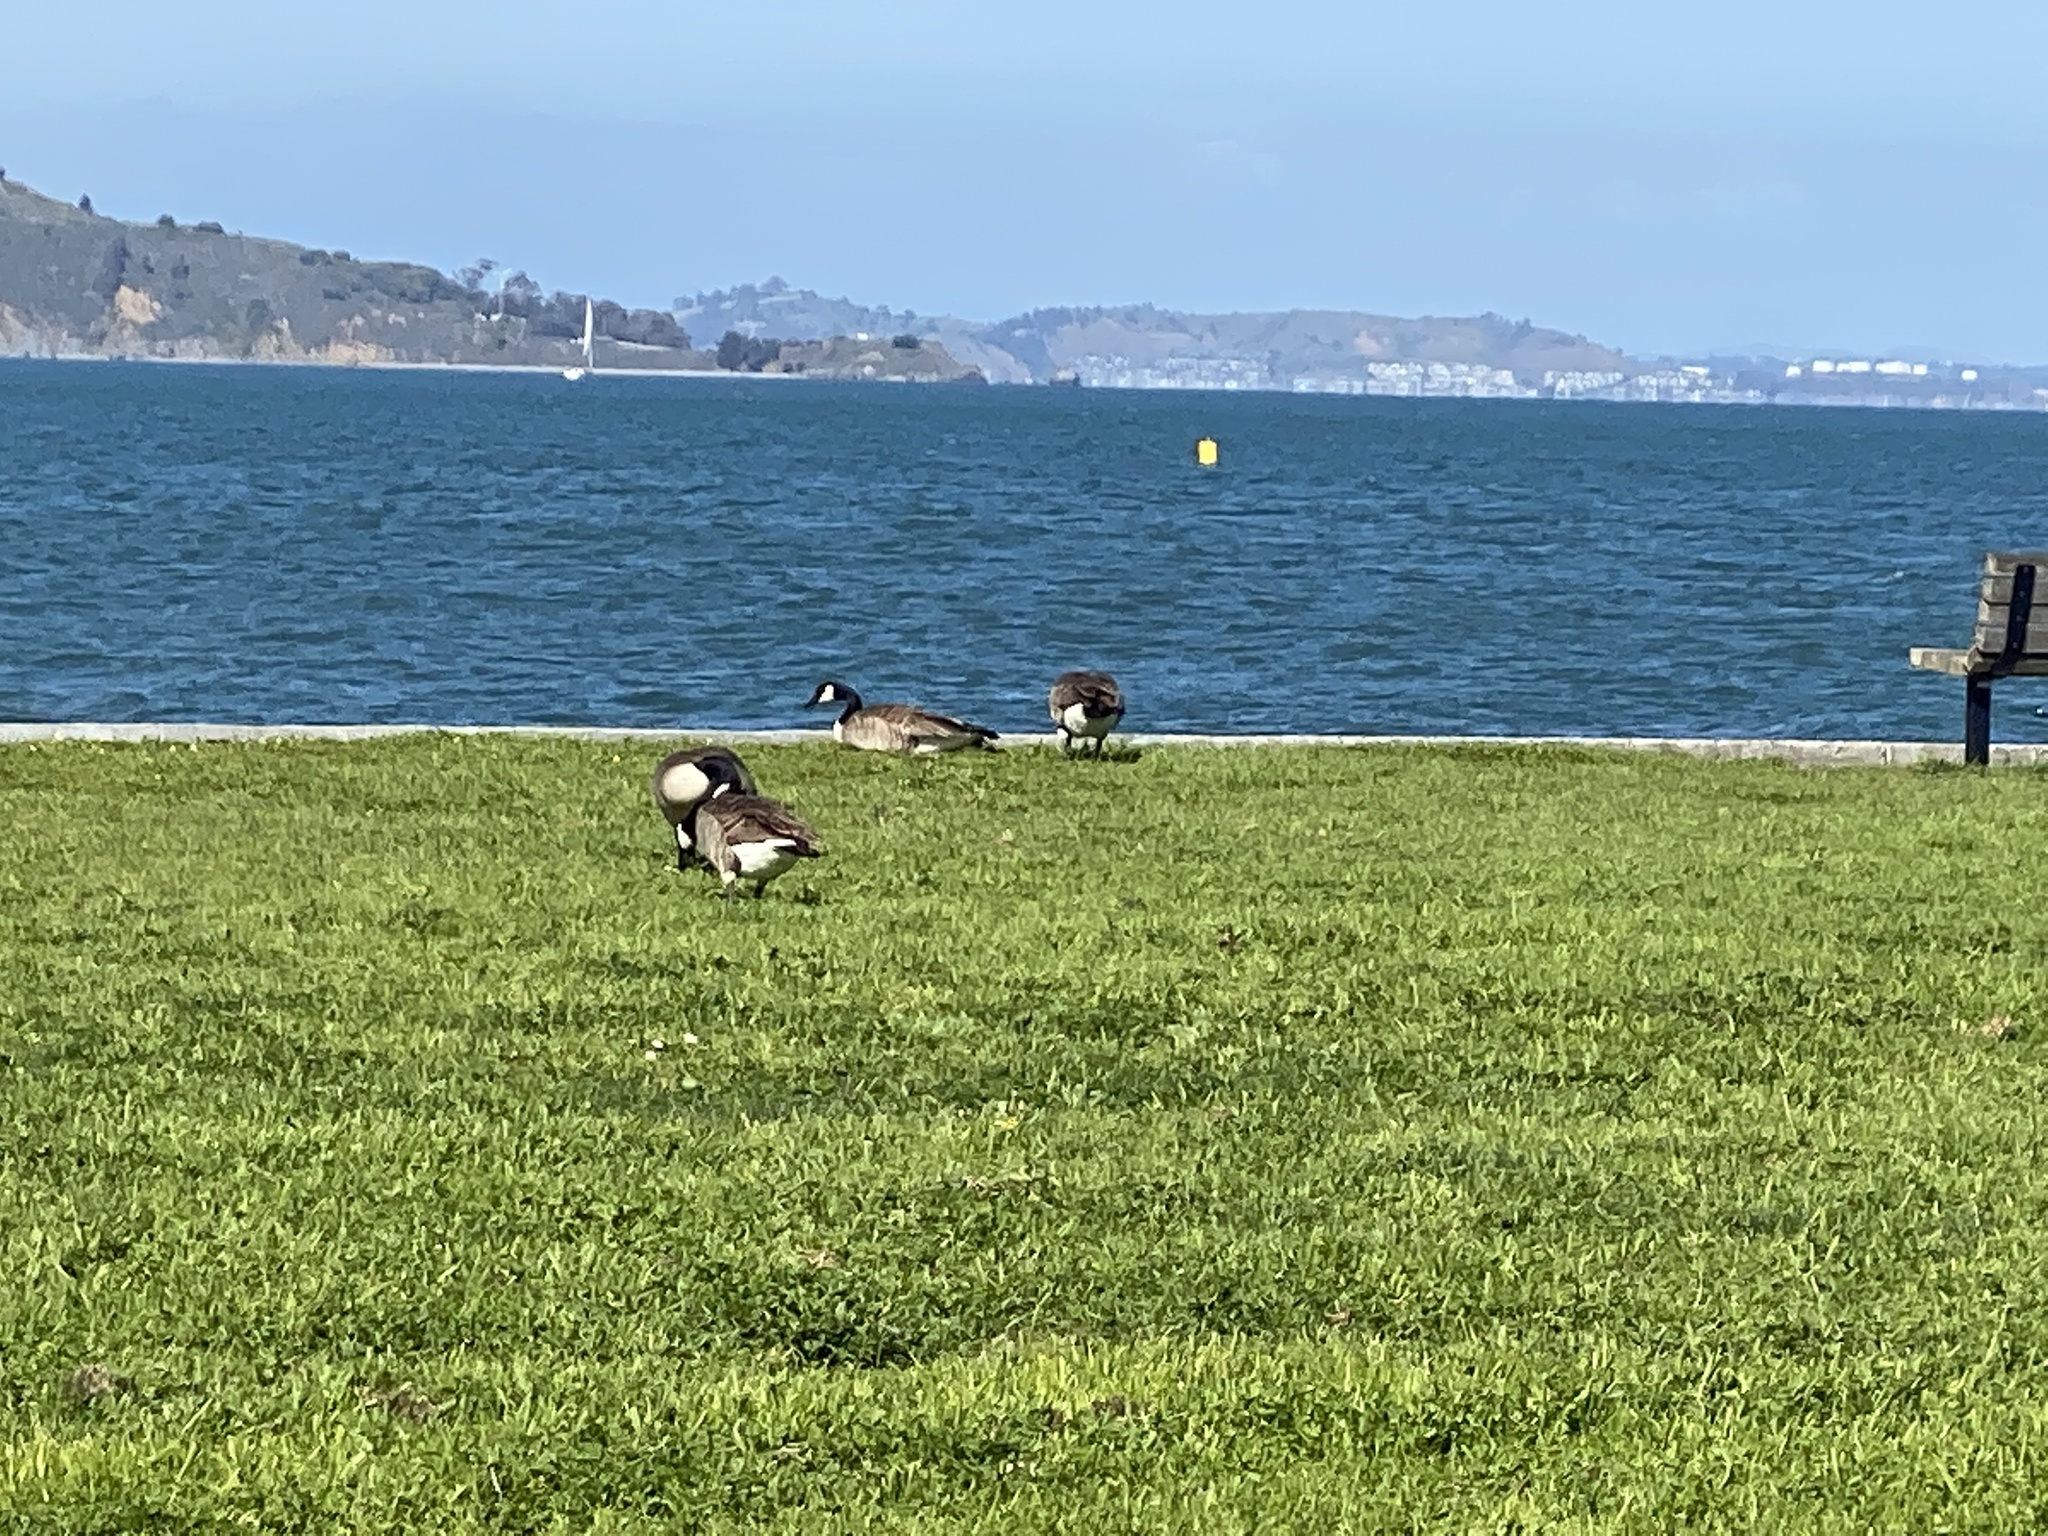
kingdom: Animalia
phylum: Chordata
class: Aves
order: Anseriformes
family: Anatidae
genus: Branta
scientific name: Branta canadensis
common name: Canada goose
